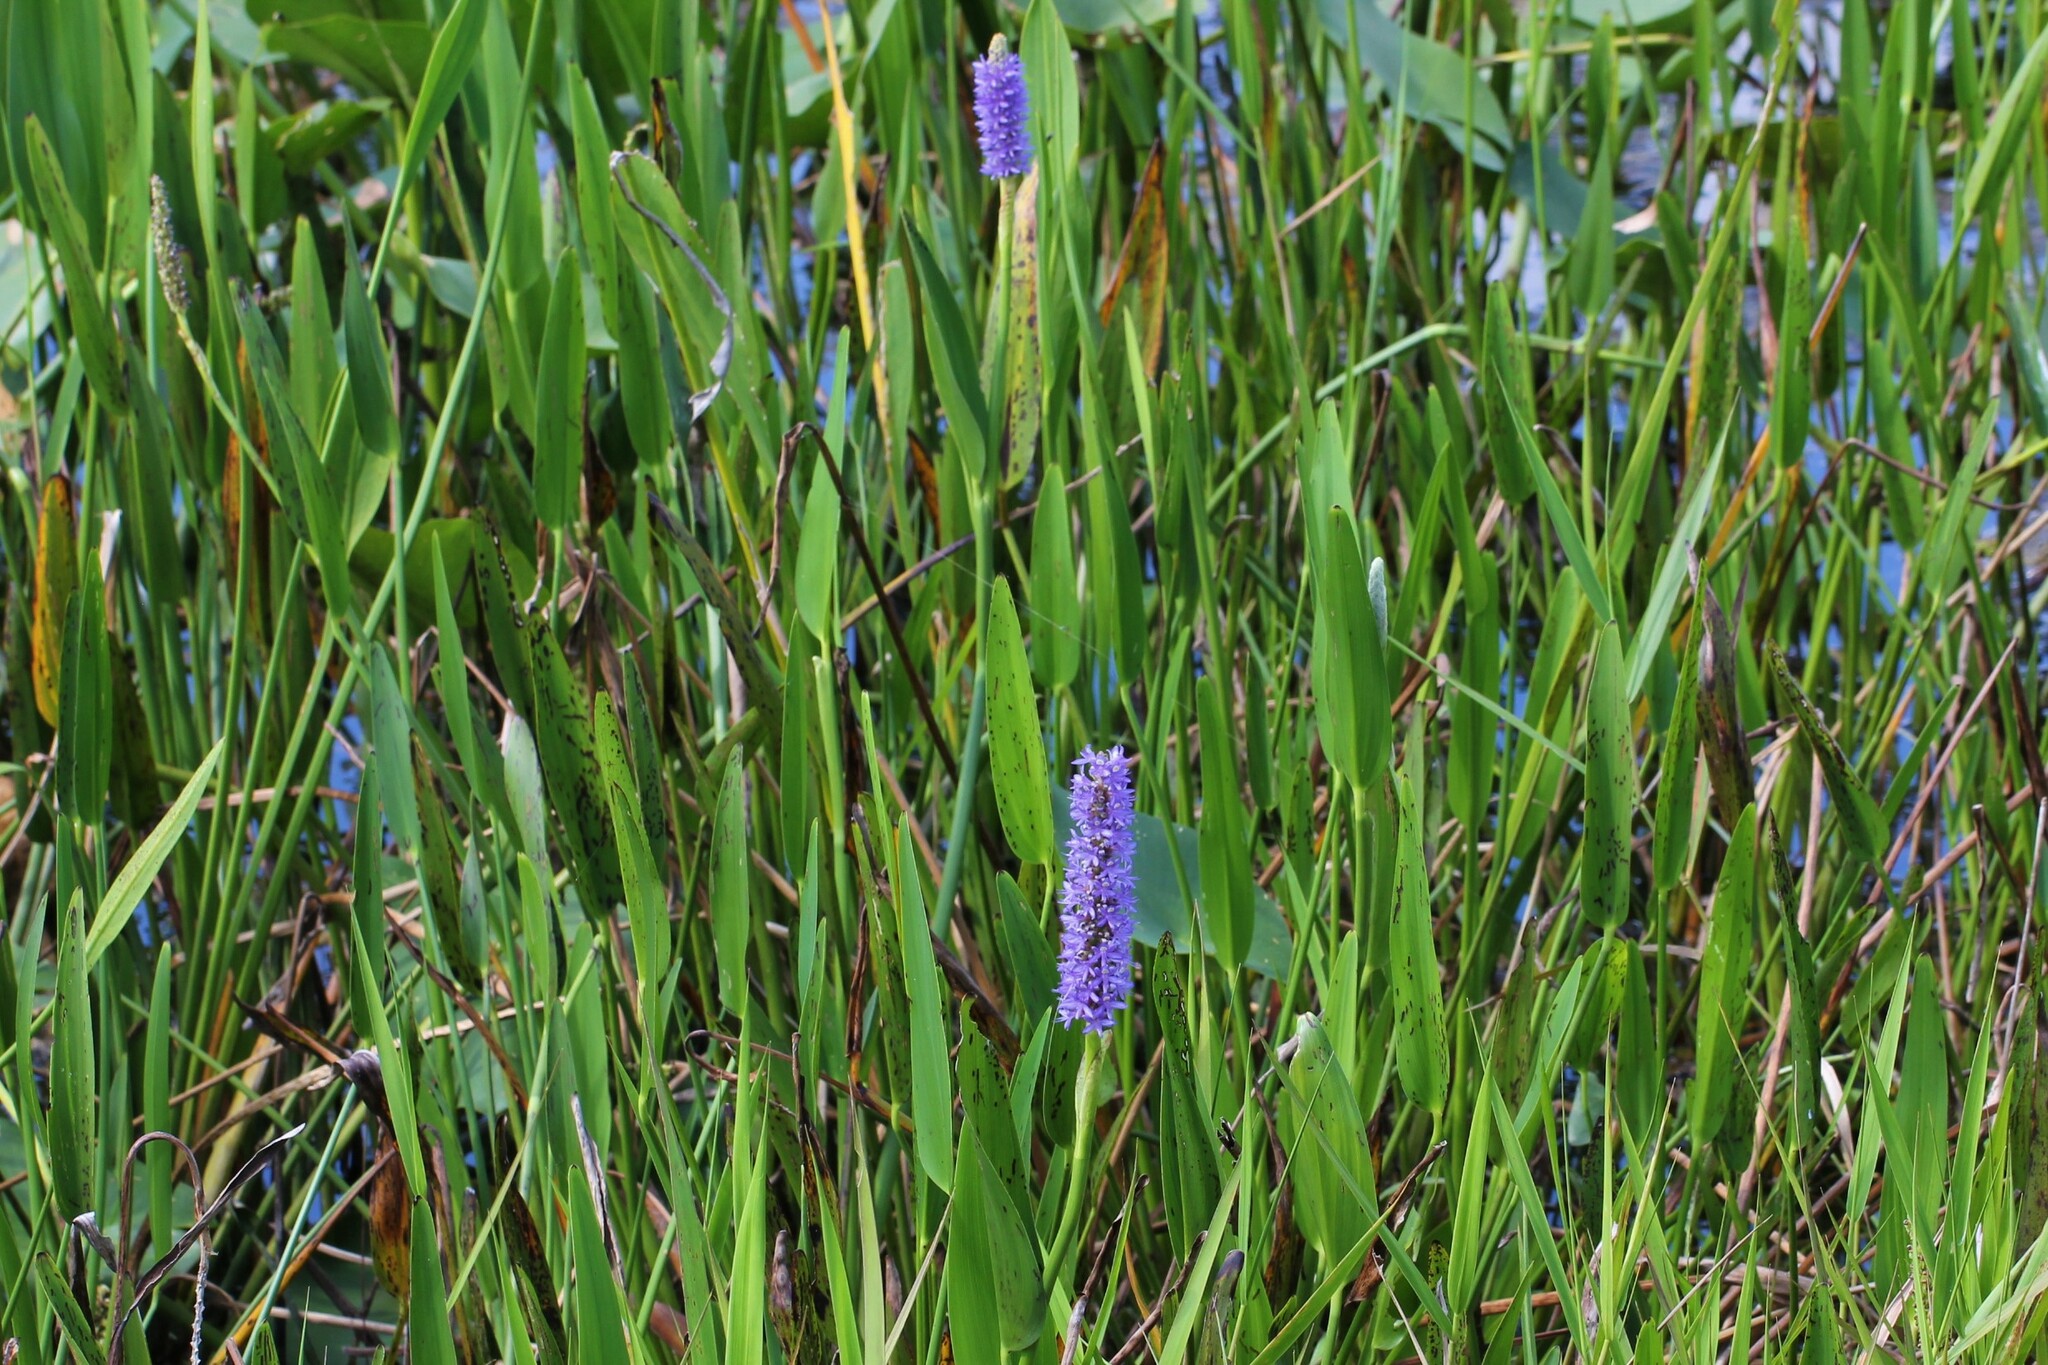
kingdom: Plantae
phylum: Tracheophyta
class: Liliopsida
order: Commelinales
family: Pontederiaceae
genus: Pontederia
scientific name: Pontederia cordata
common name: Pickerelweed
